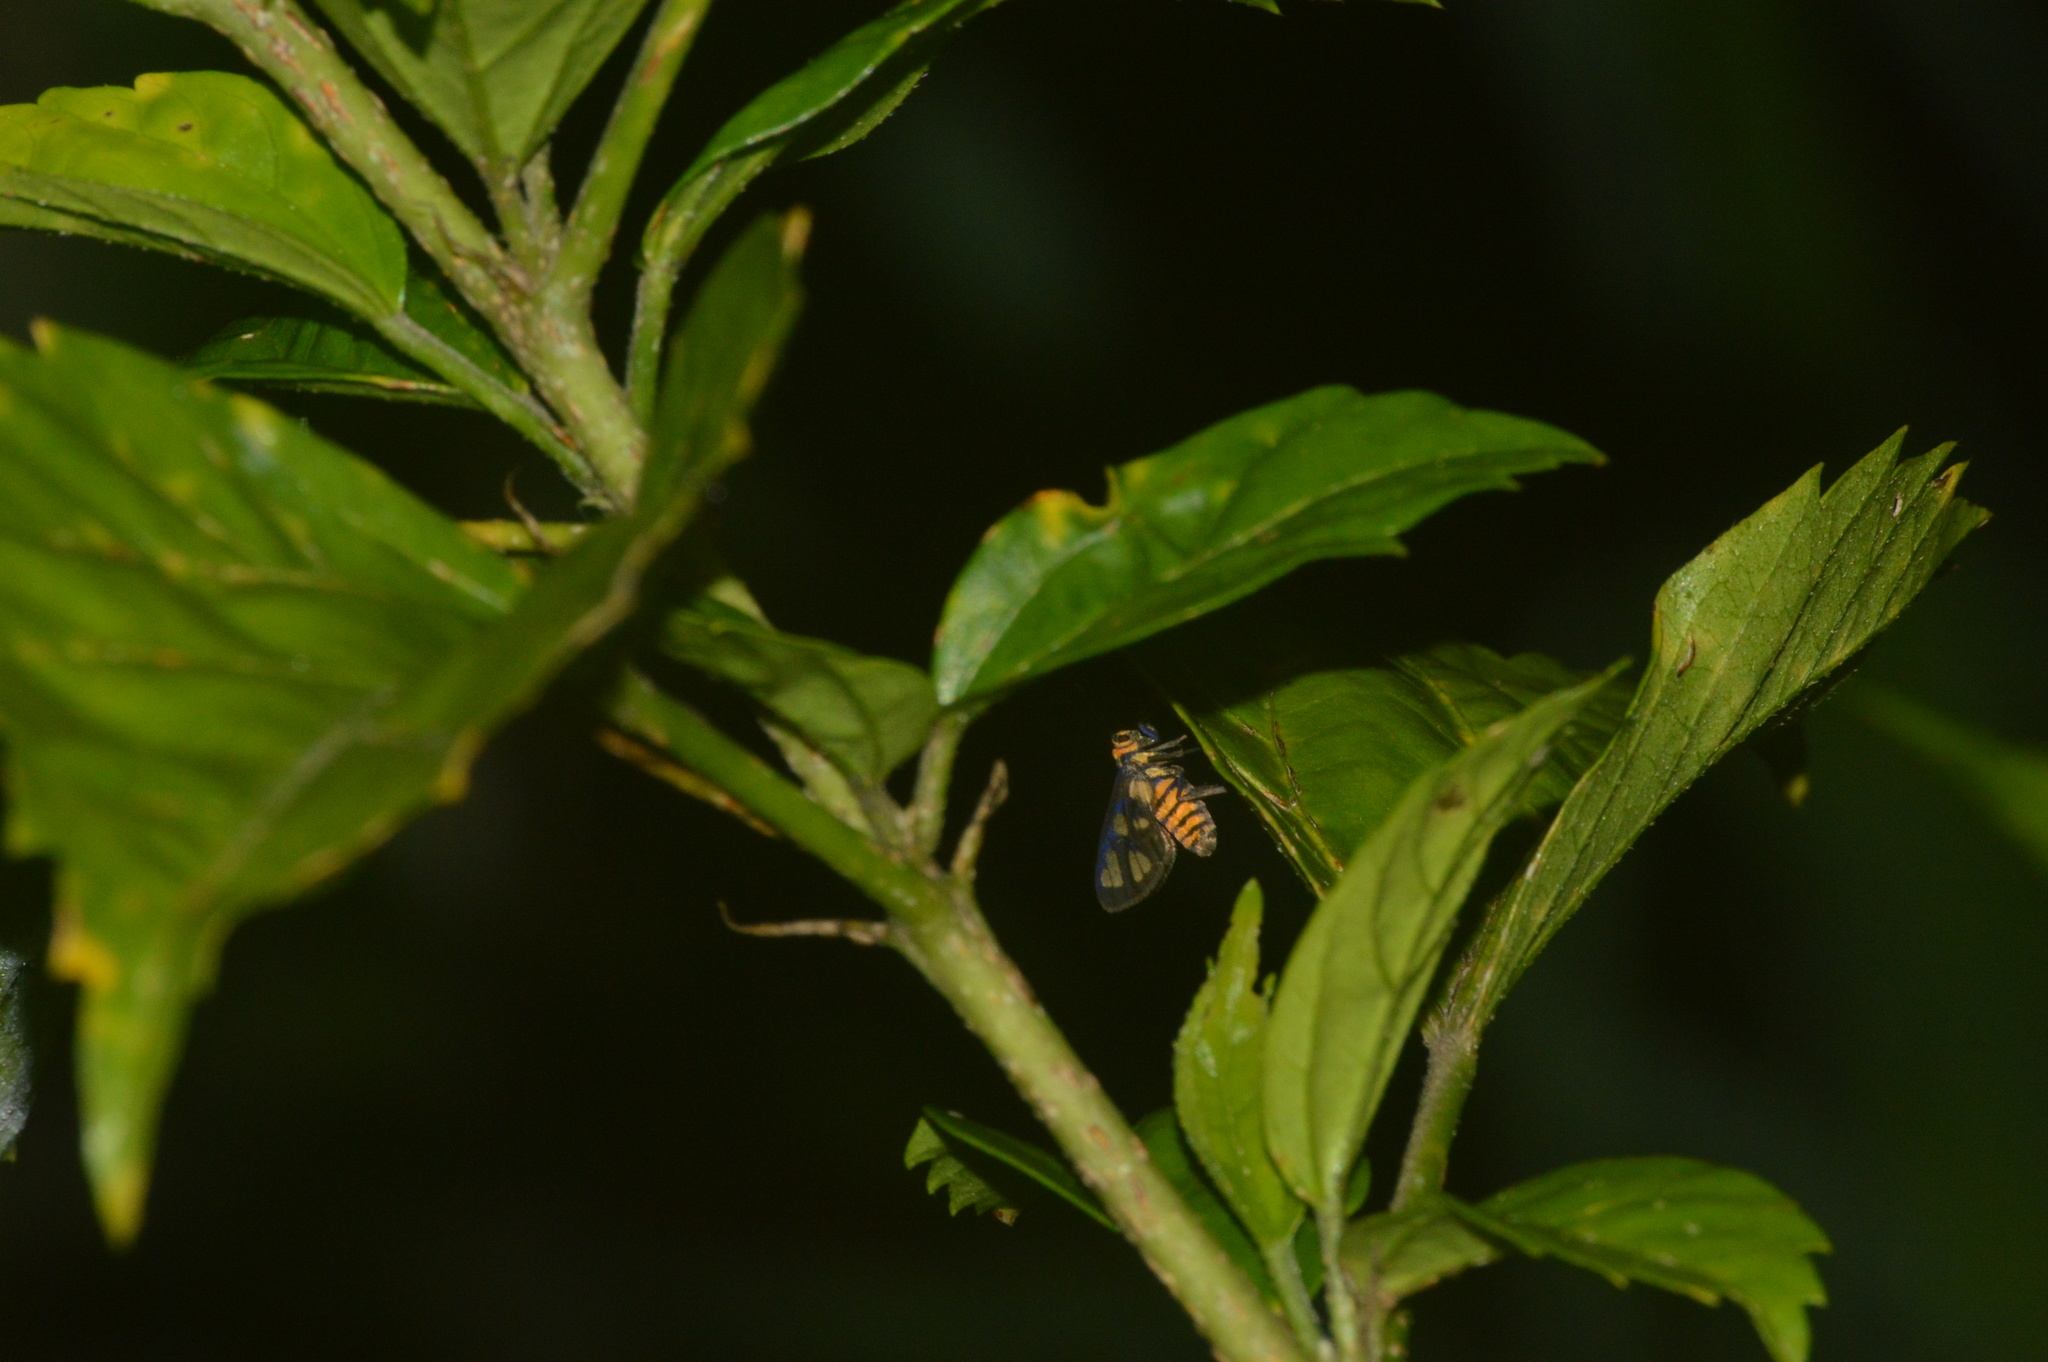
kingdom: Animalia
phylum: Arthropoda
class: Insecta
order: Lepidoptera
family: Erebidae
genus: Amata
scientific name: Amata huebneri
